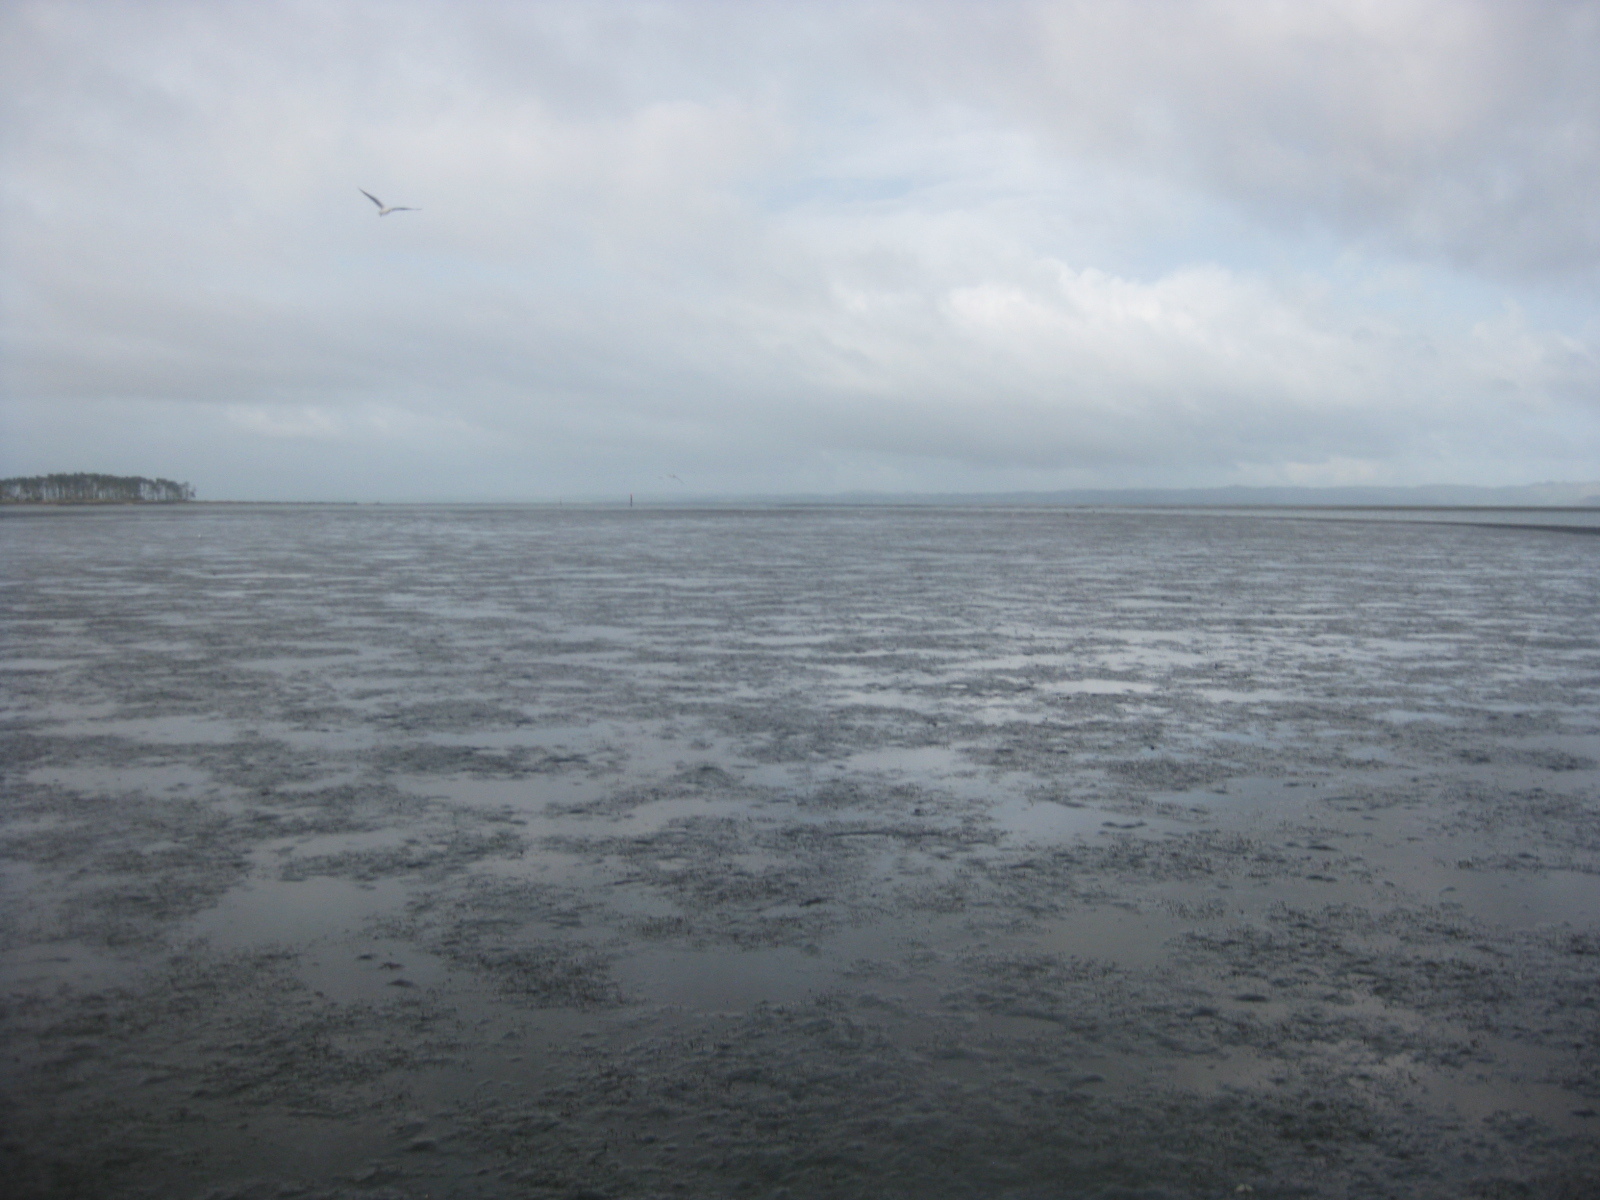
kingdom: Animalia
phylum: Annelida
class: Polychaeta
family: Pectinariidae
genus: Lagis
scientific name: Lagis australis
